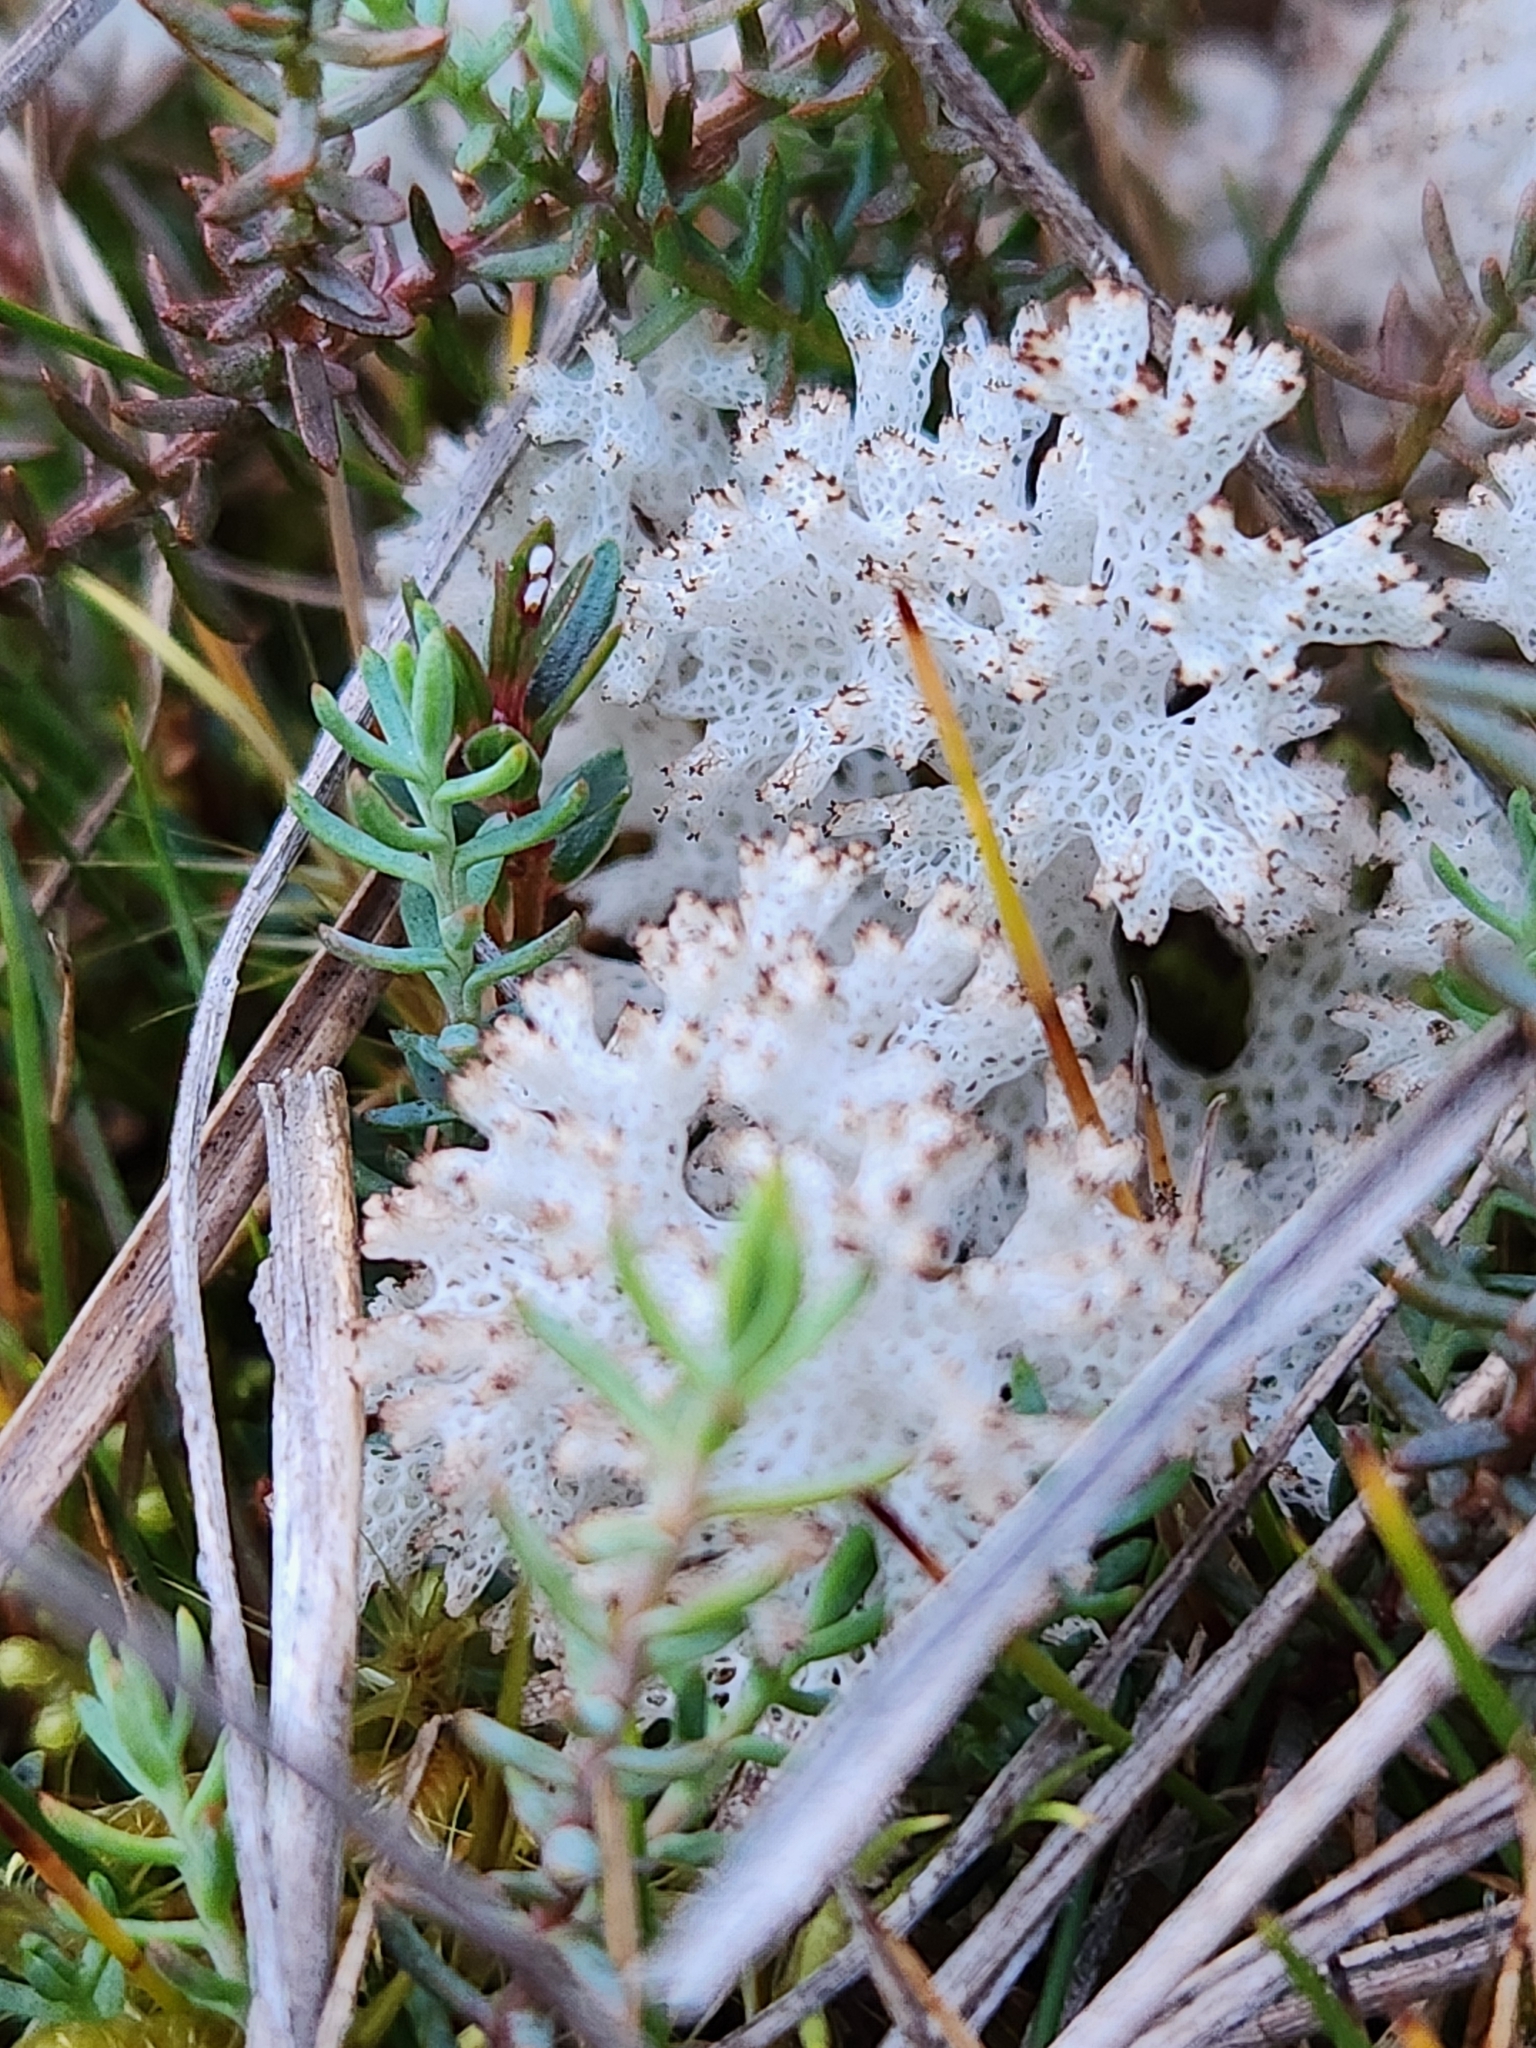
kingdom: Fungi
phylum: Ascomycota
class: Lecanoromycetes
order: Lecanorales
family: Cladoniaceae
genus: Pulchrocladia
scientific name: Pulchrocladia retipora
